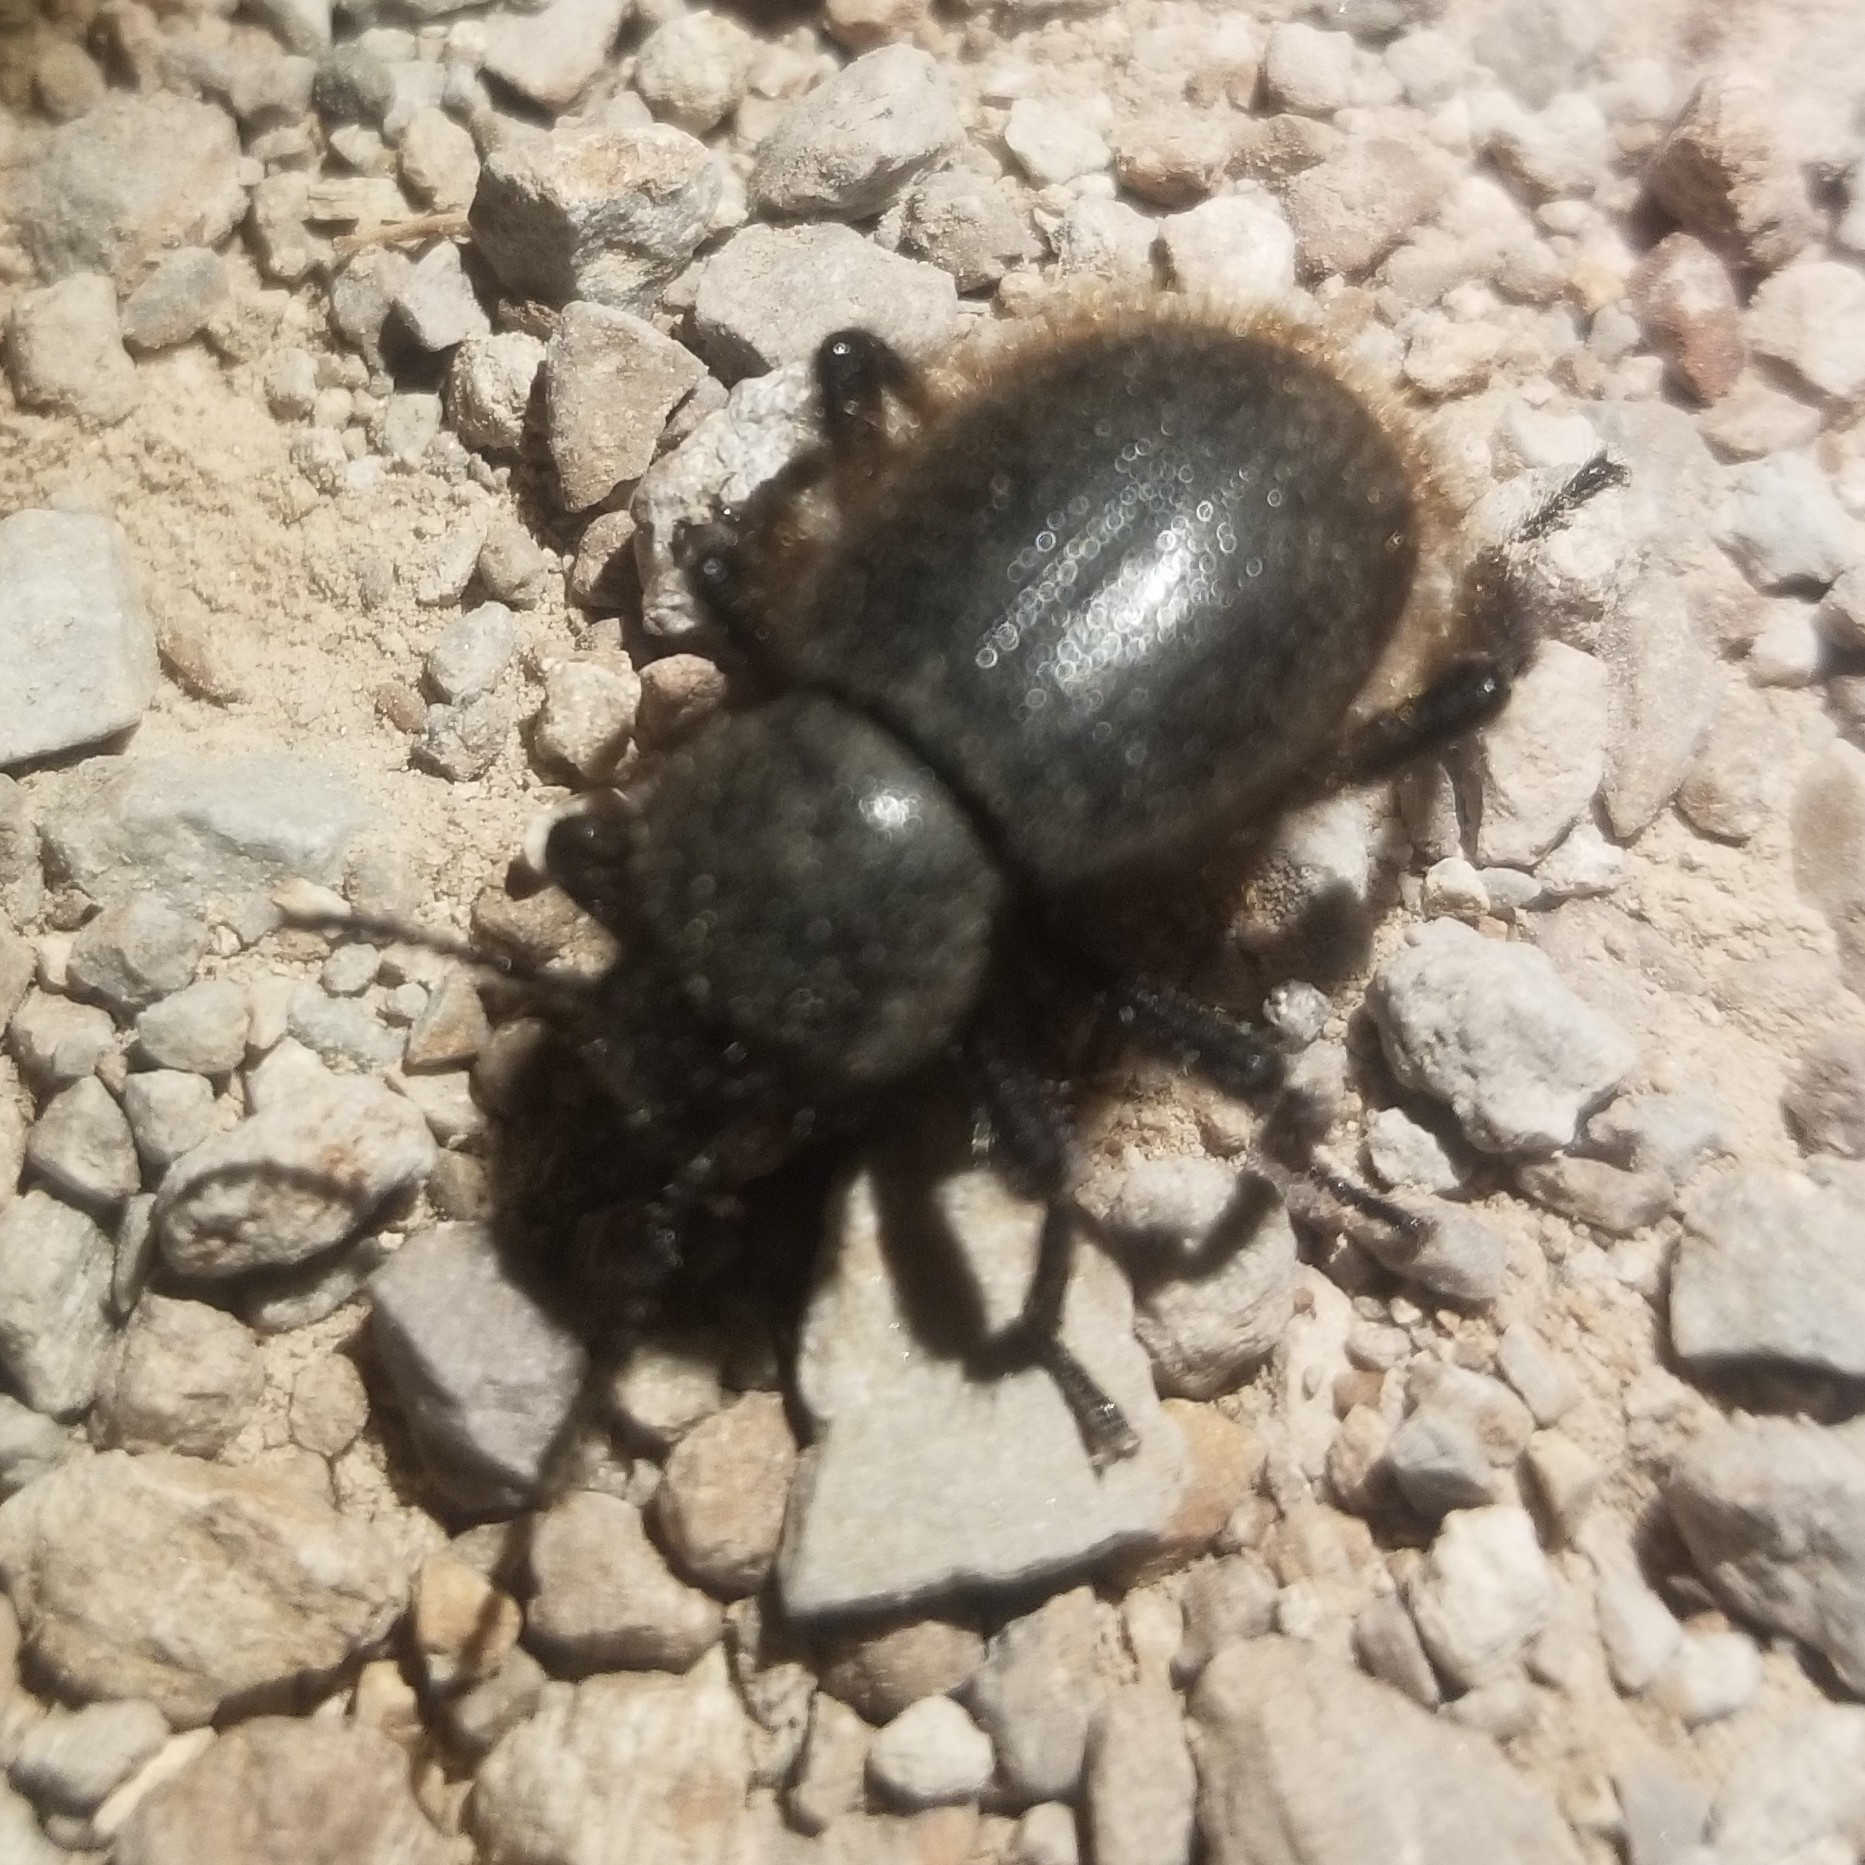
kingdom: Animalia
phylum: Arthropoda
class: Insecta
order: Coleoptera
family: Tenebrionidae
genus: Eleodes
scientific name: Eleodes osculans
